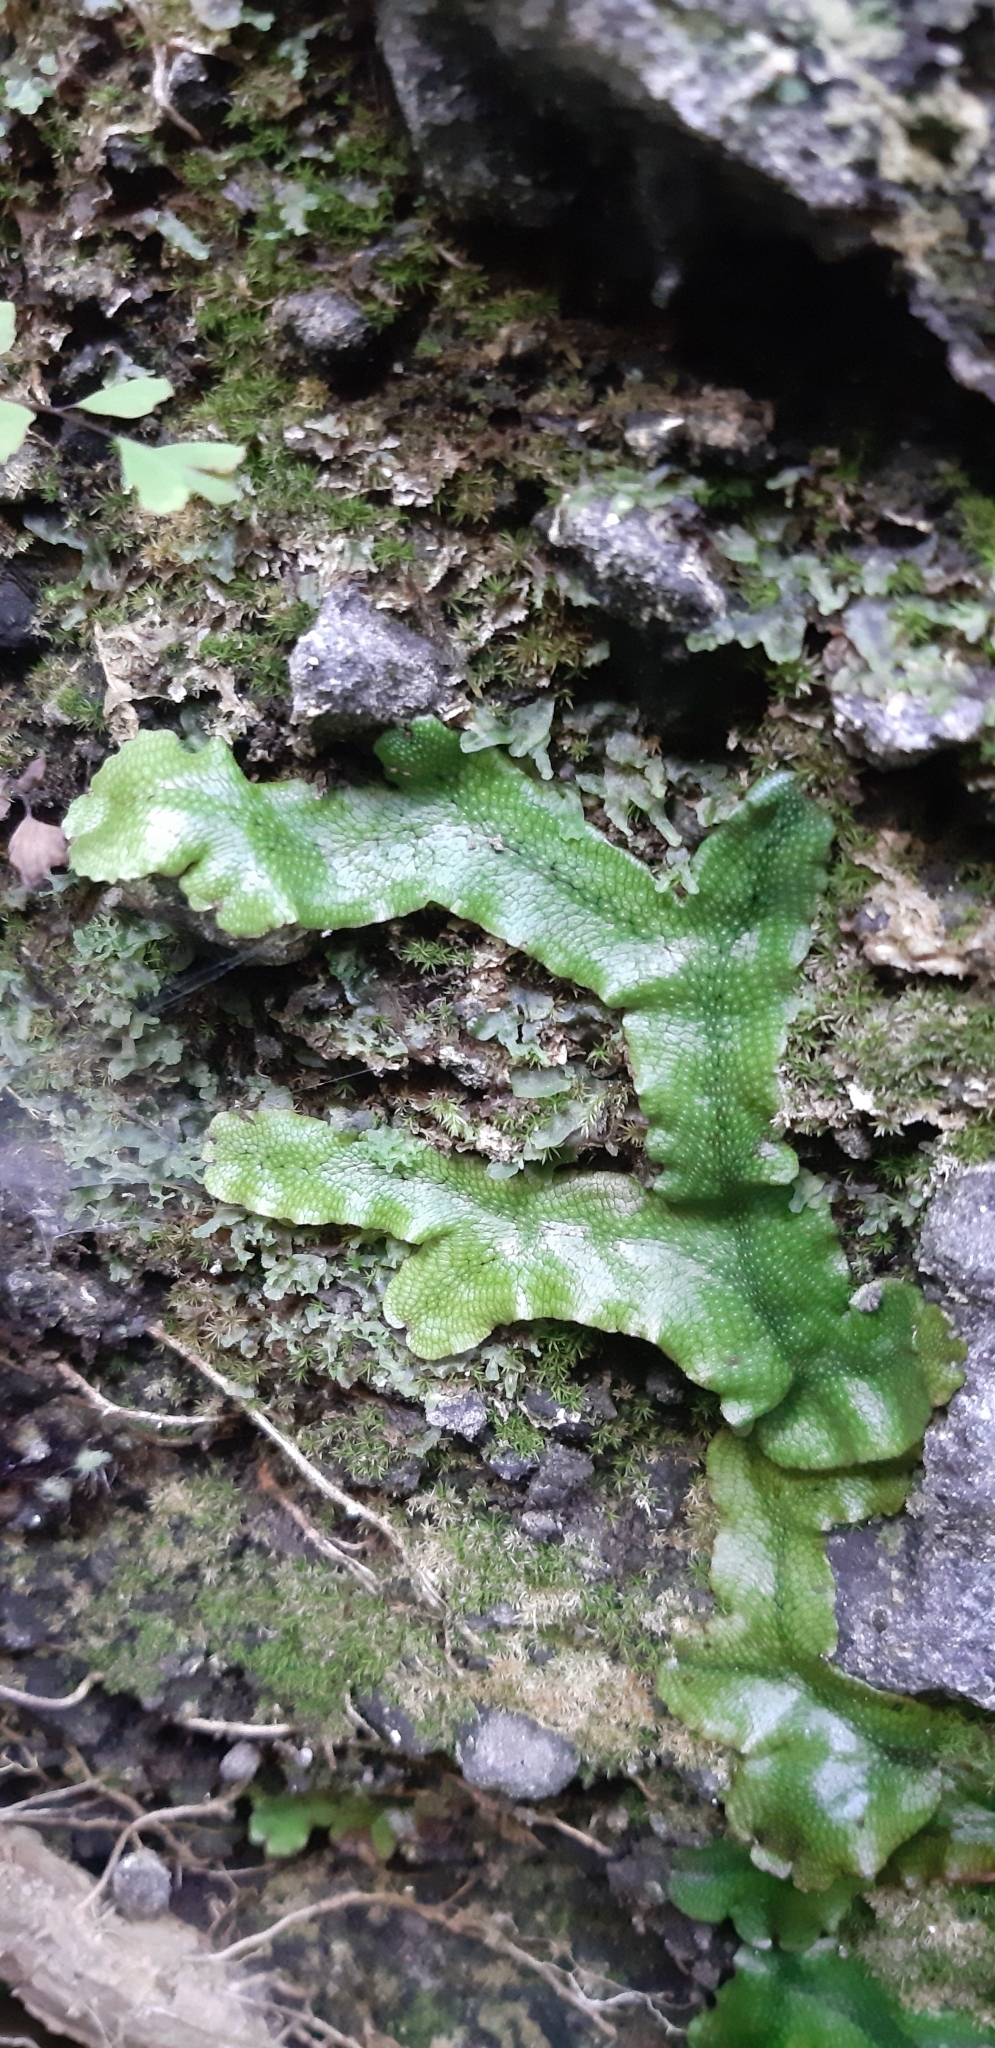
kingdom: Plantae
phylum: Marchantiophyta
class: Marchantiopsida
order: Marchantiales
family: Conocephalaceae
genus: Conocephalum
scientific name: Conocephalum conicum
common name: Great scented liverwort
